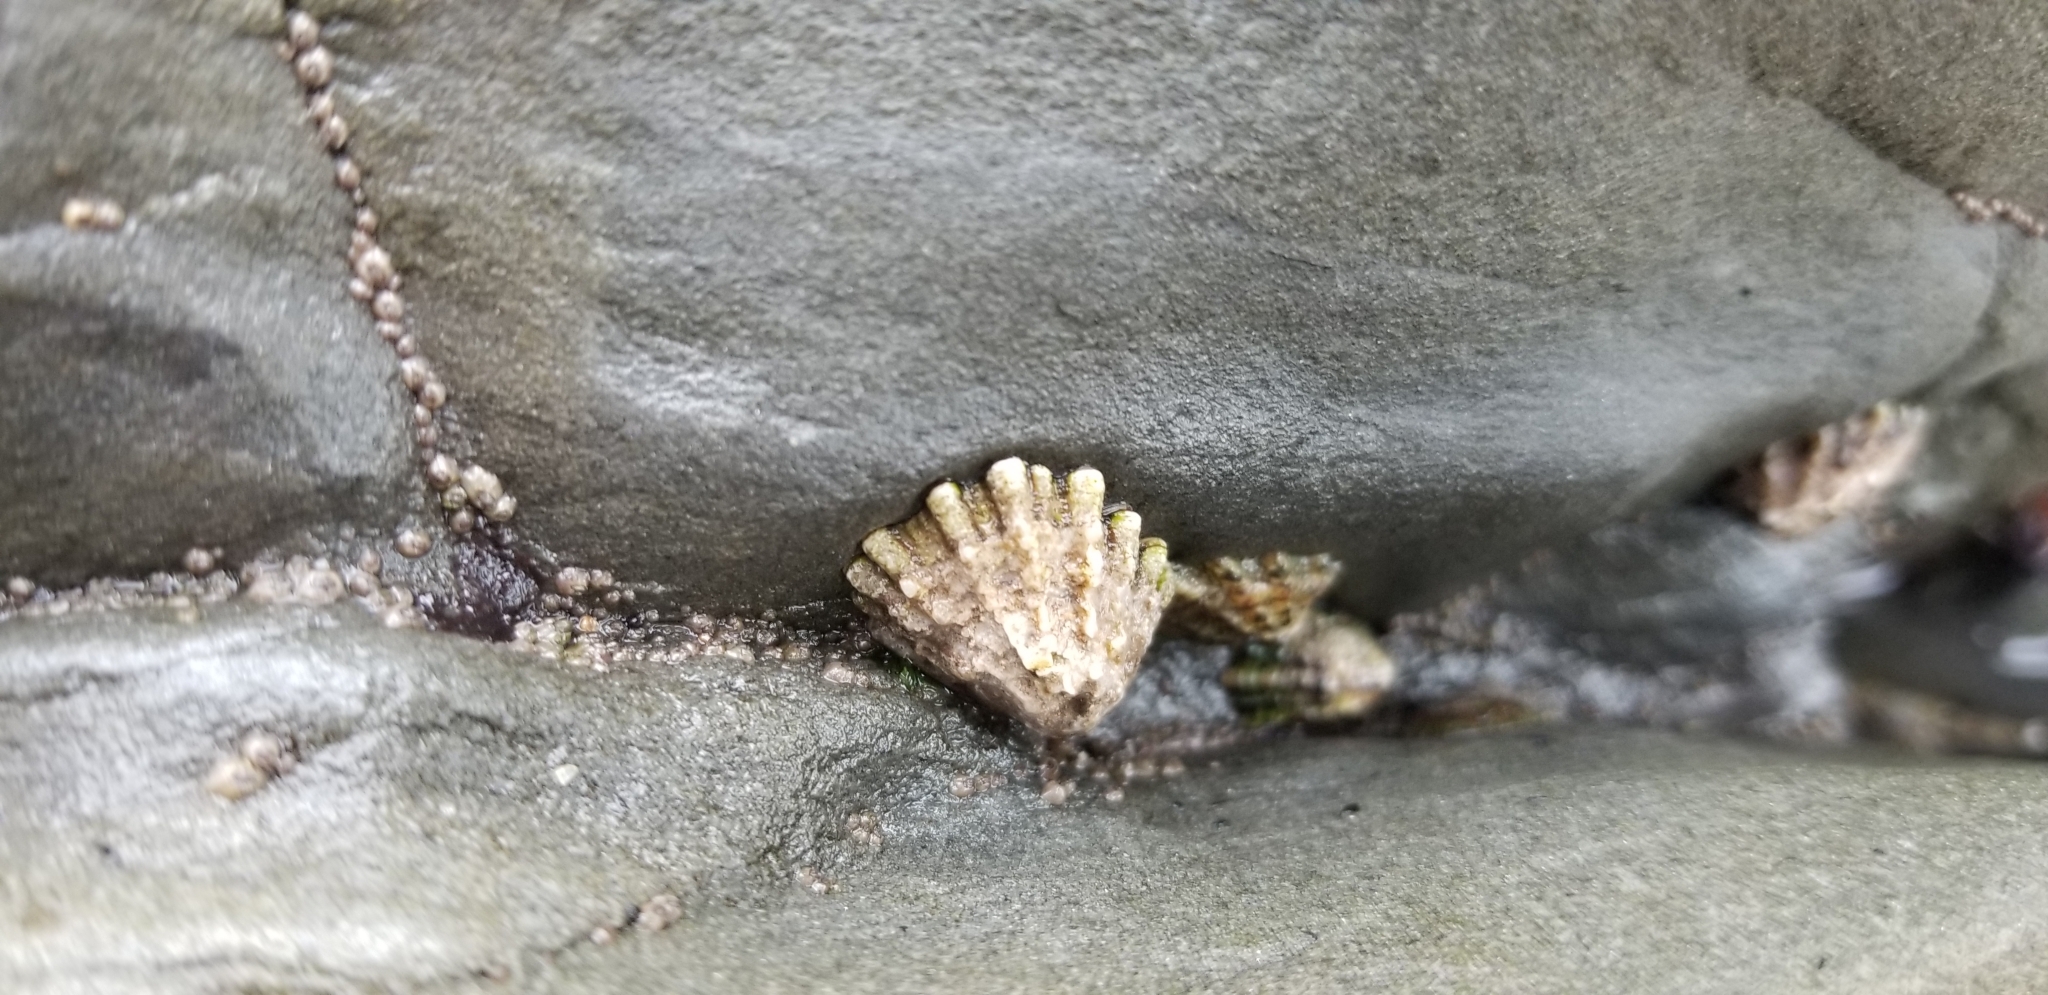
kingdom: Animalia
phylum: Mollusca
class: Gastropoda
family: Lottiidae
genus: Lottia
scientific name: Lottia scabra
